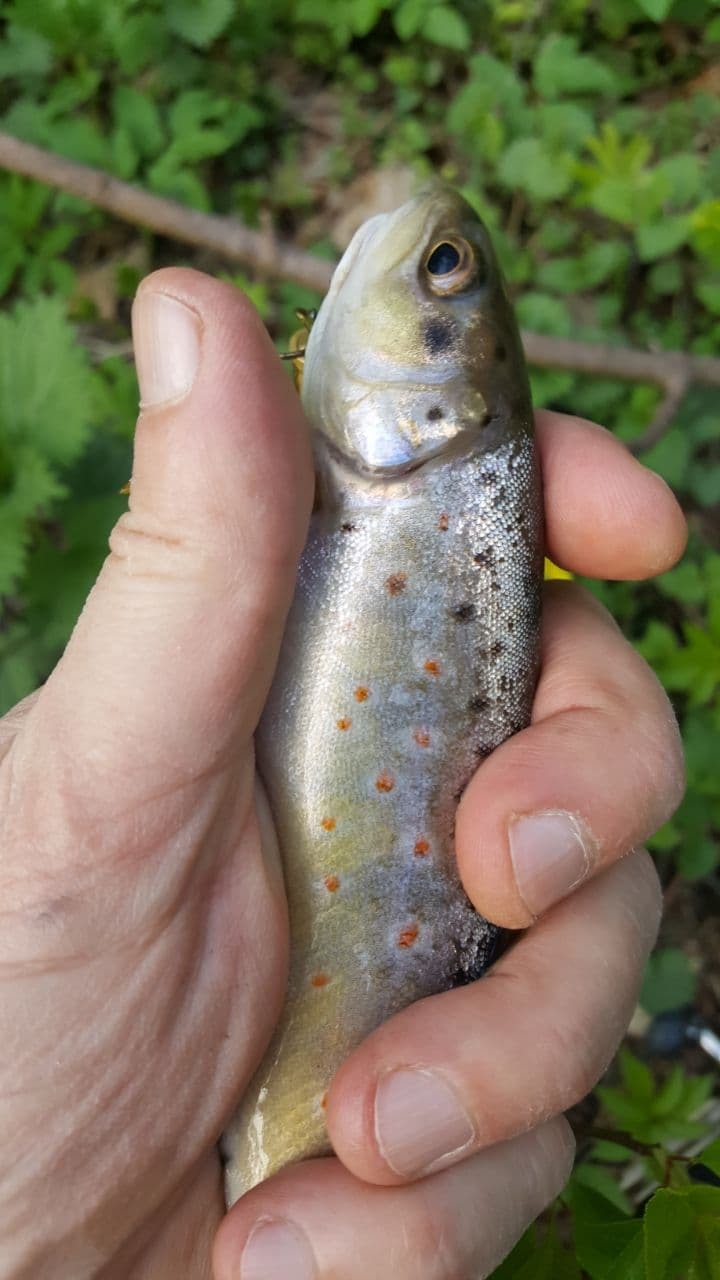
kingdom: Animalia
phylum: Chordata
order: Salmoniformes
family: Salmonidae
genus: Salmo
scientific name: Salmo trutta
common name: Brown trout
